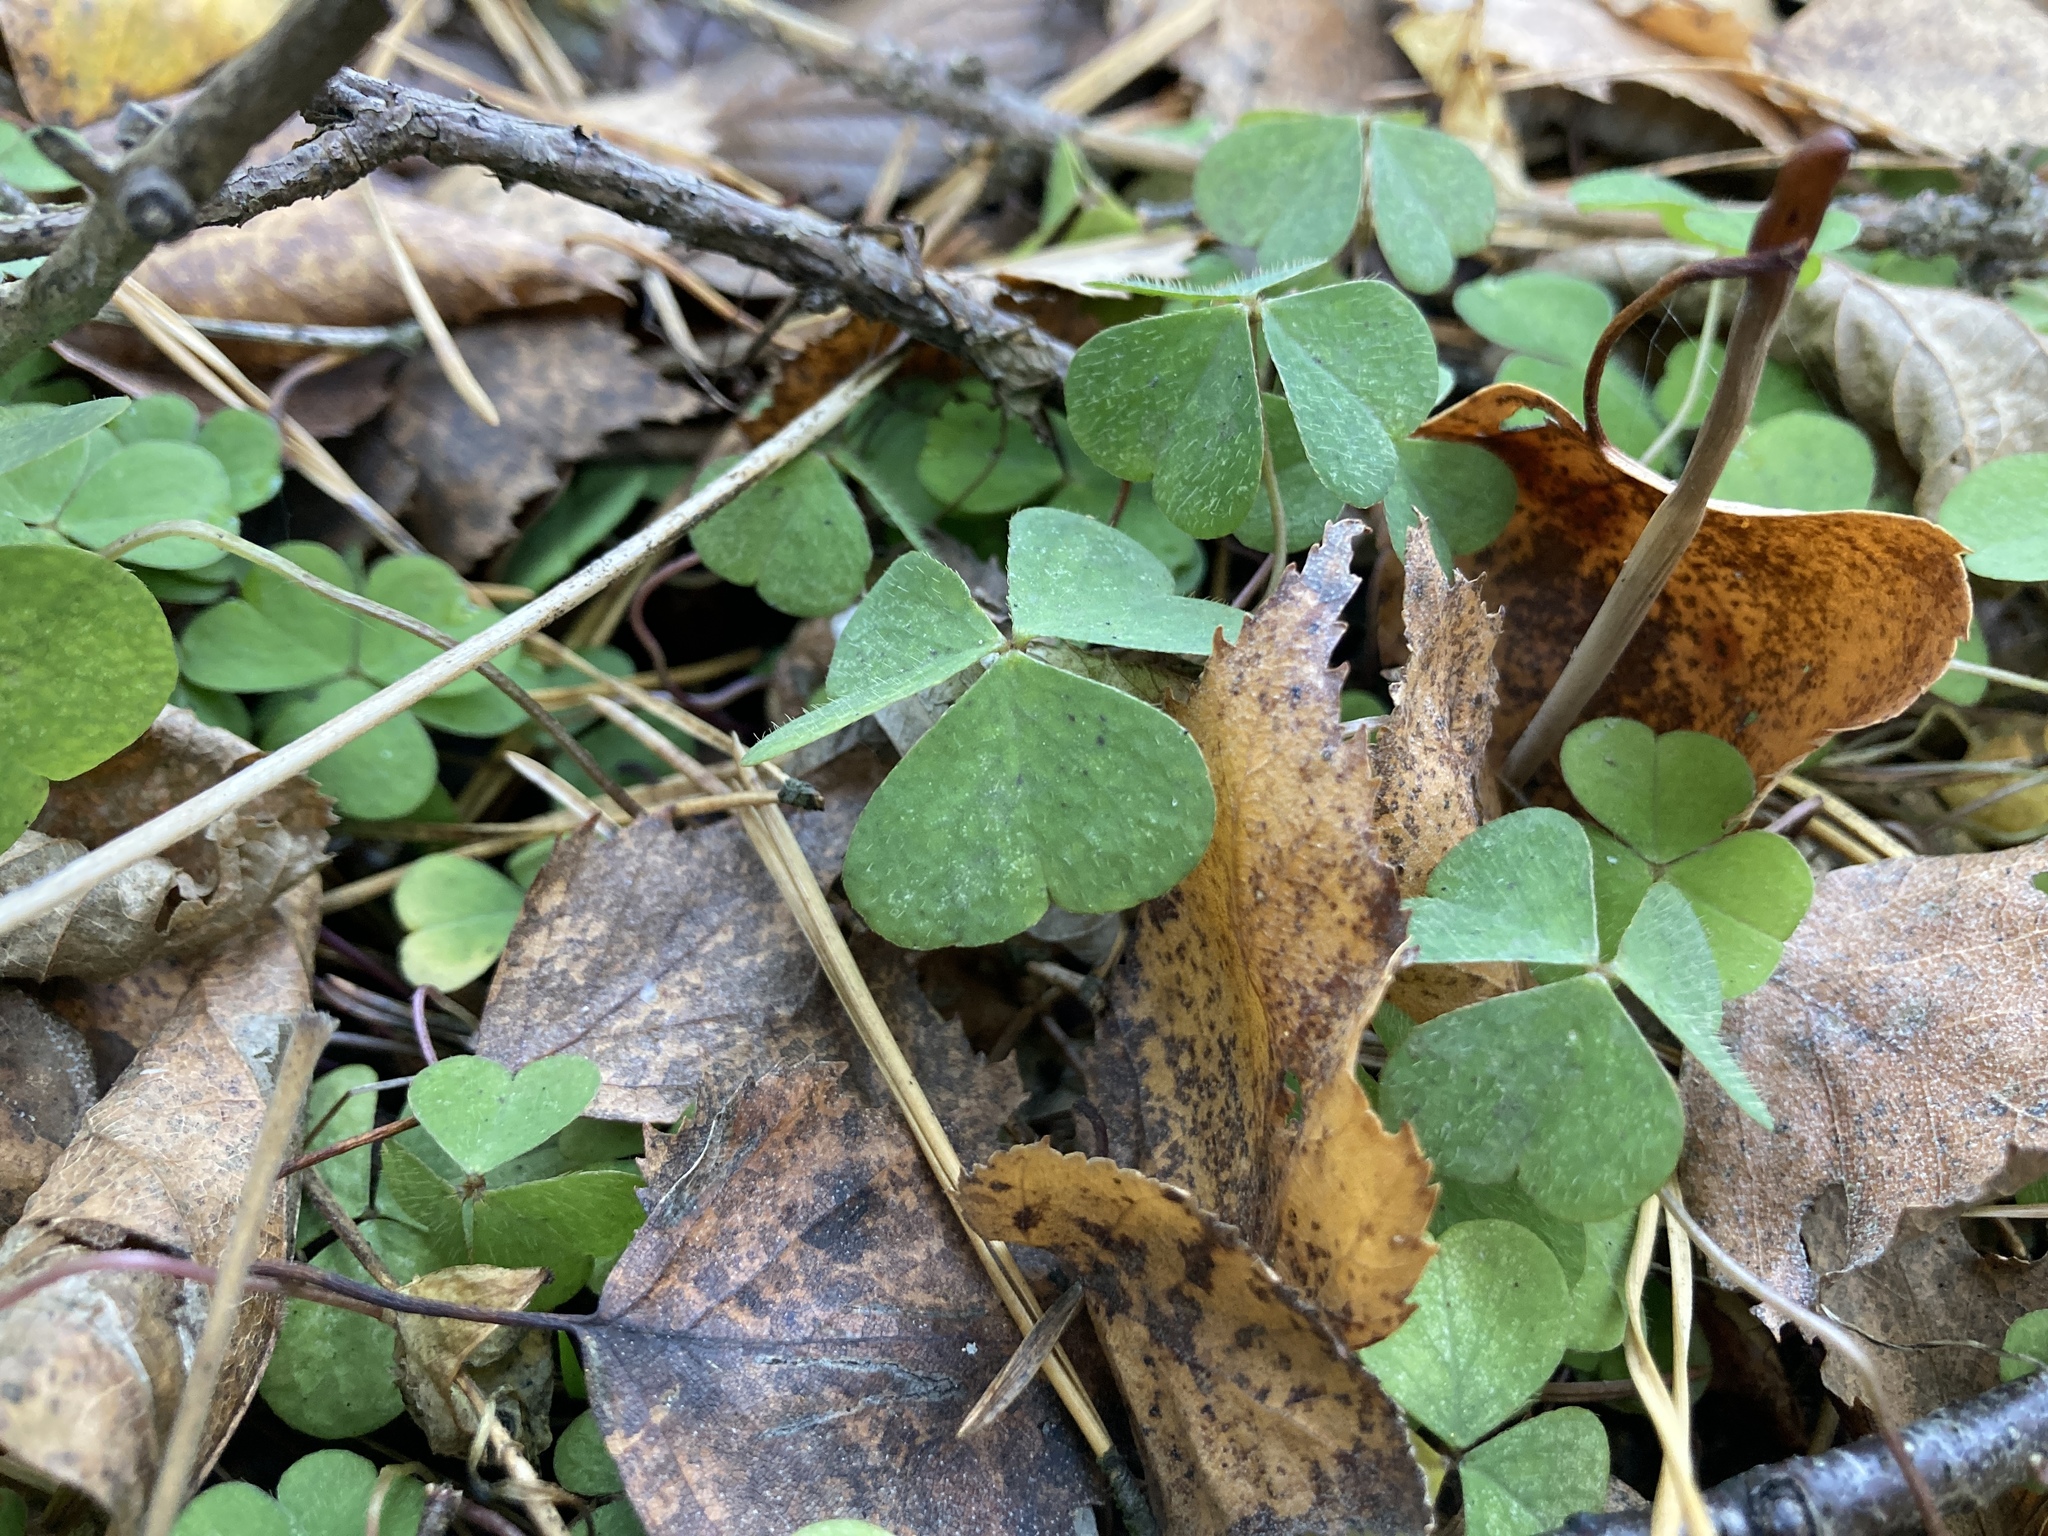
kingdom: Plantae
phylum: Tracheophyta
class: Magnoliopsida
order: Oxalidales
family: Oxalidaceae
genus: Oxalis
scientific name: Oxalis acetosella
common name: Wood-sorrel
